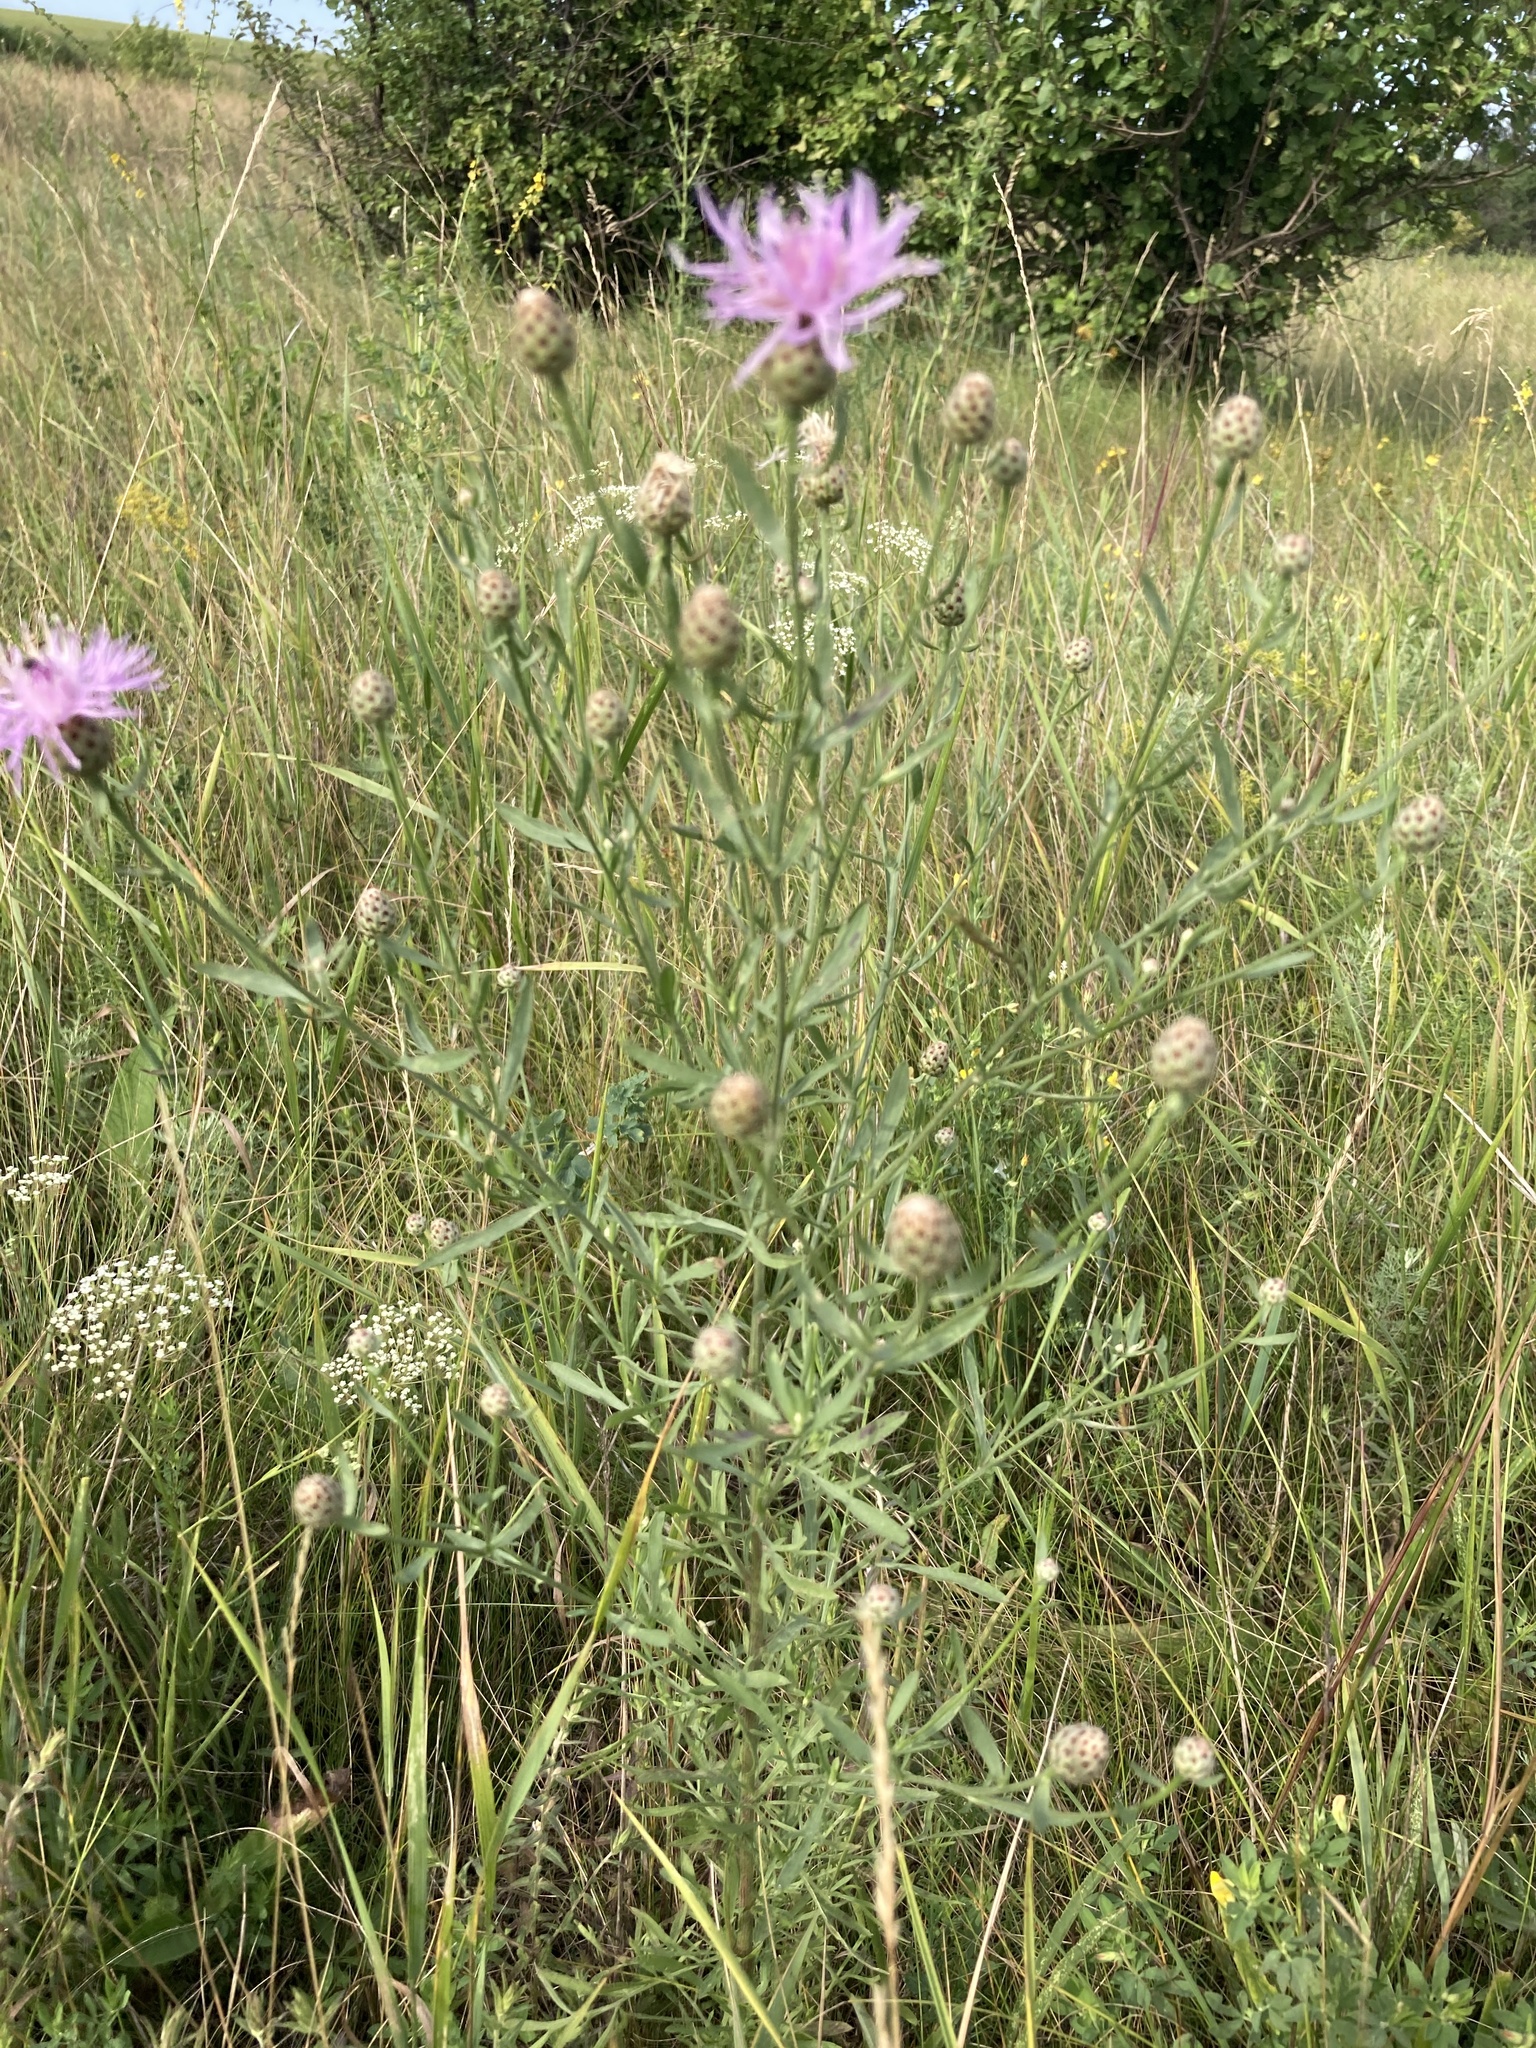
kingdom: Plantae
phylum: Tracheophyta
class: Magnoliopsida
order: Asterales
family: Asteraceae
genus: Centaurea
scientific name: Centaurea stoebe
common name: Spotted knapweed
